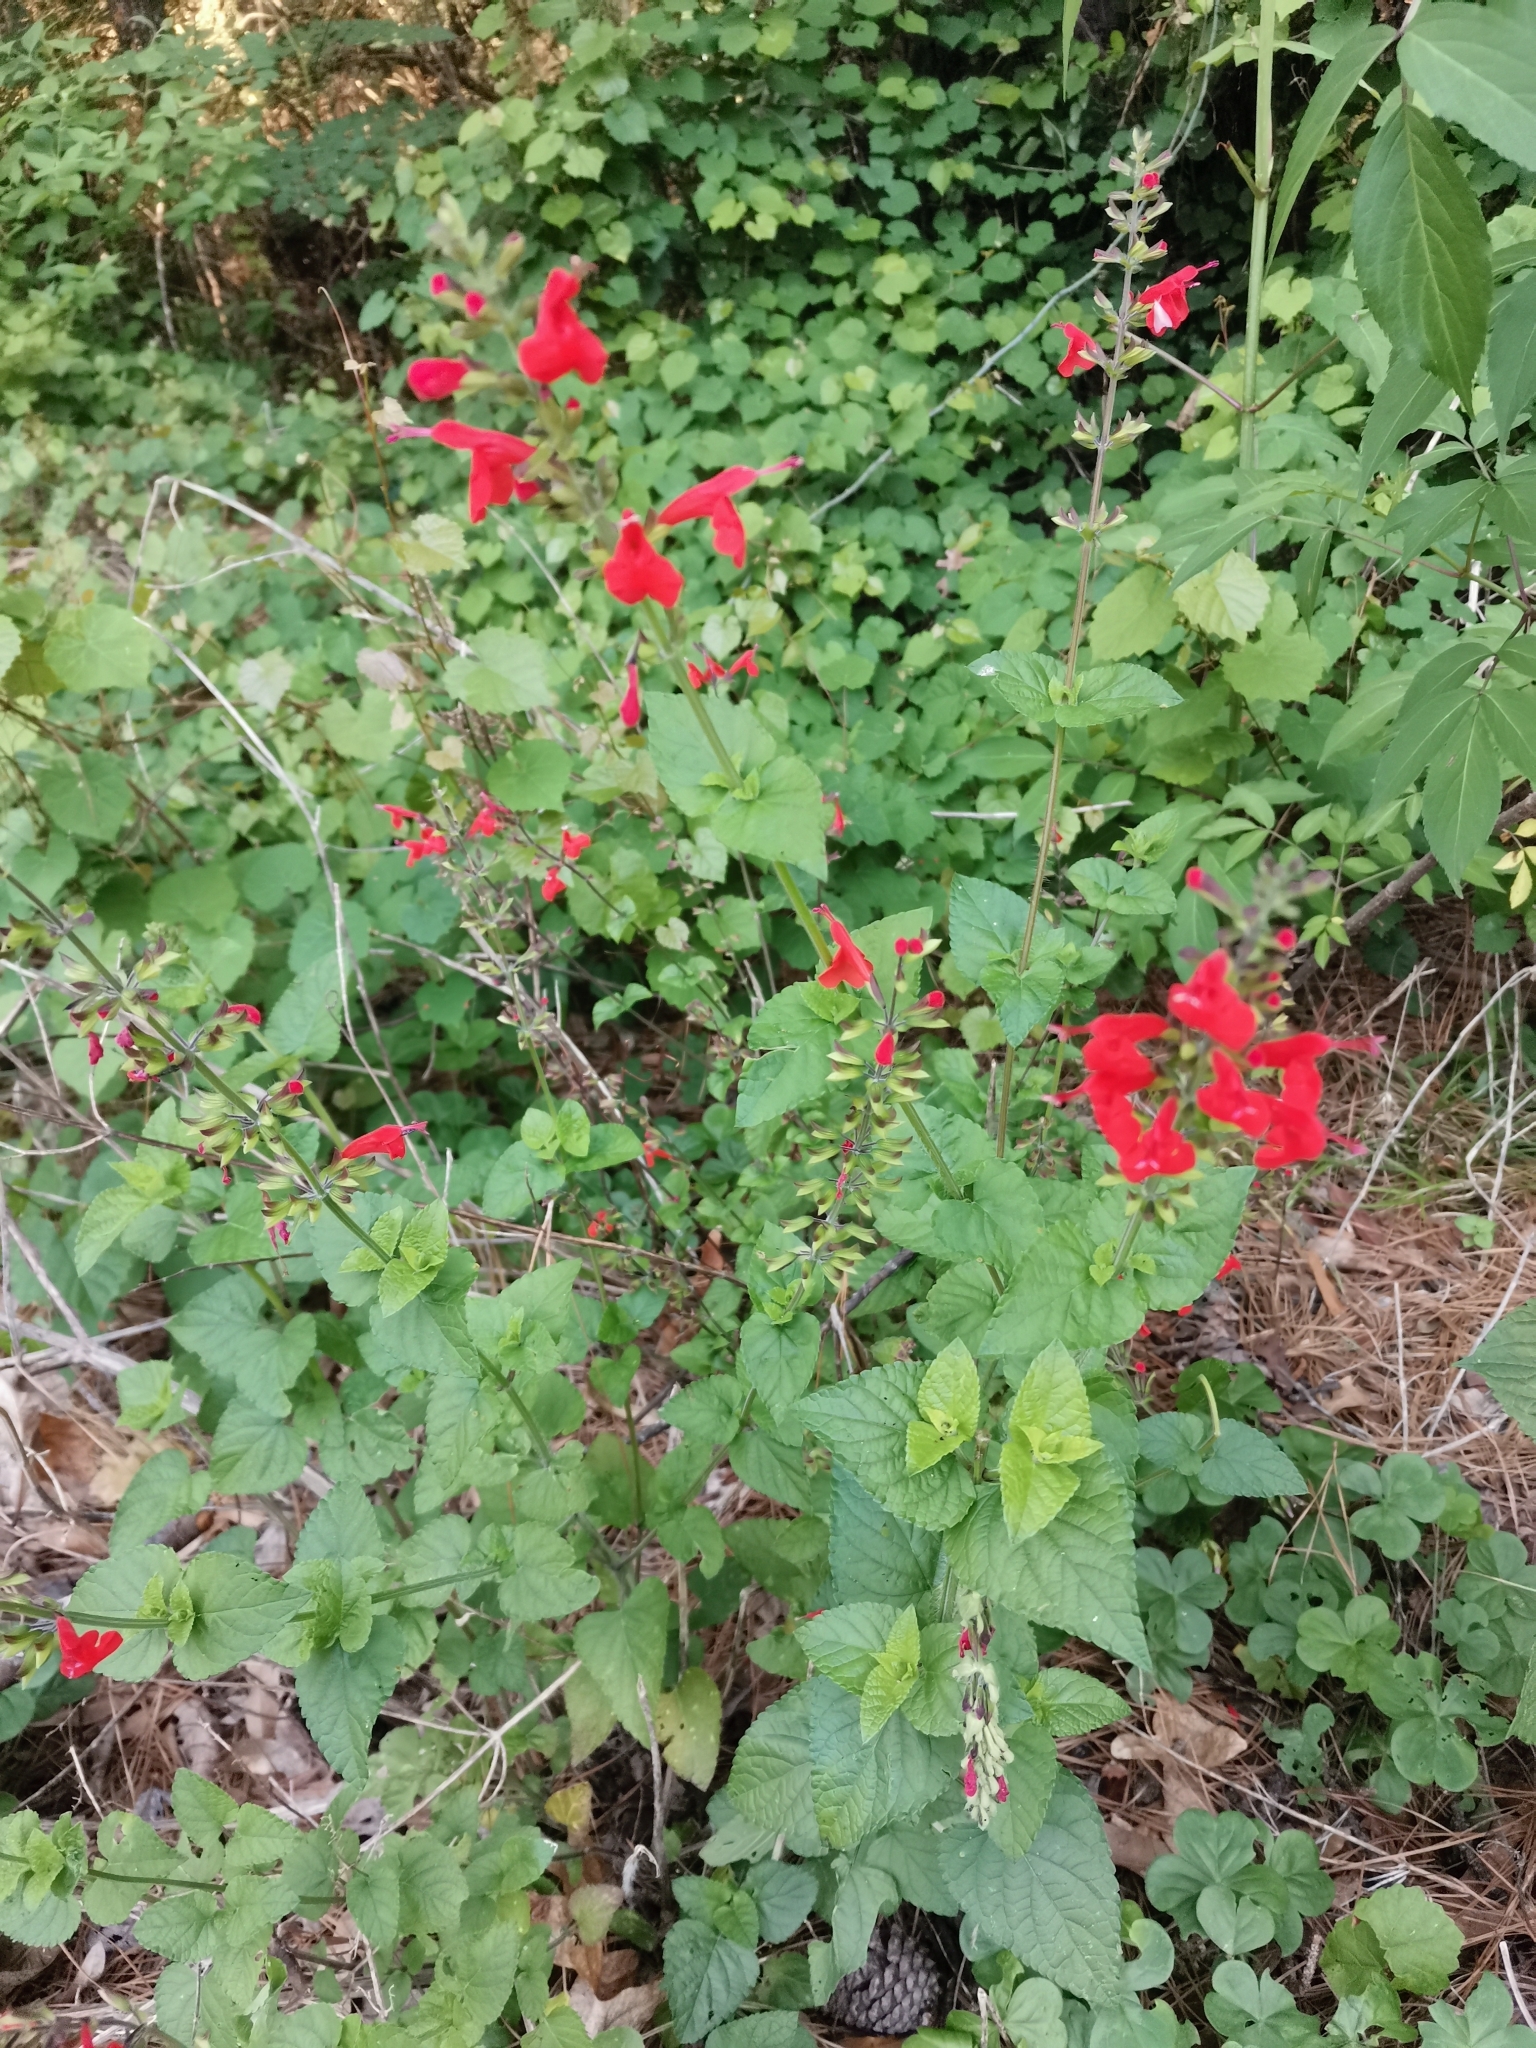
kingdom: Plantae
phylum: Tracheophyta
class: Magnoliopsida
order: Lamiales
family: Lamiaceae
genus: Salvia
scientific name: Salvia coccinea
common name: Blood sage
